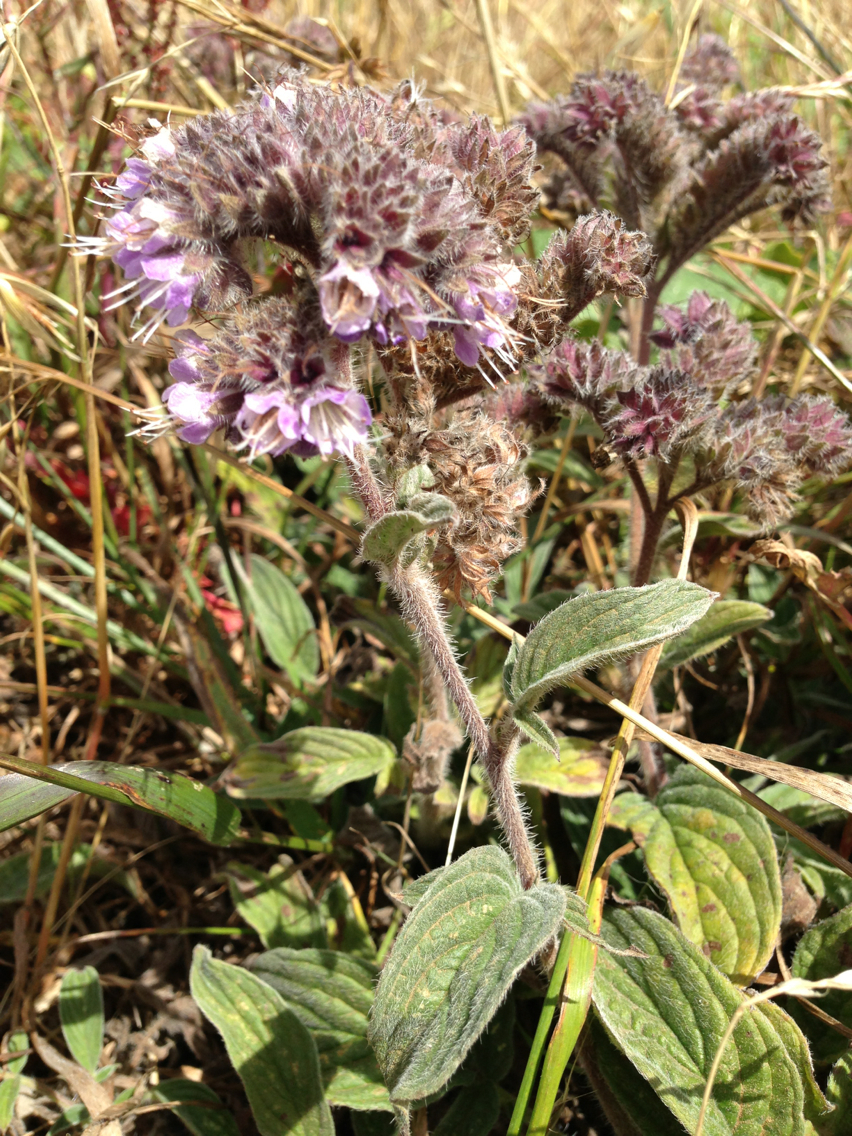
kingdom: Plantae
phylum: Tracheophyta
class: Magnoliopsida
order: Boraginales
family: Hydrophyllaceae
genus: Phacelia
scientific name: Phacelia californica
